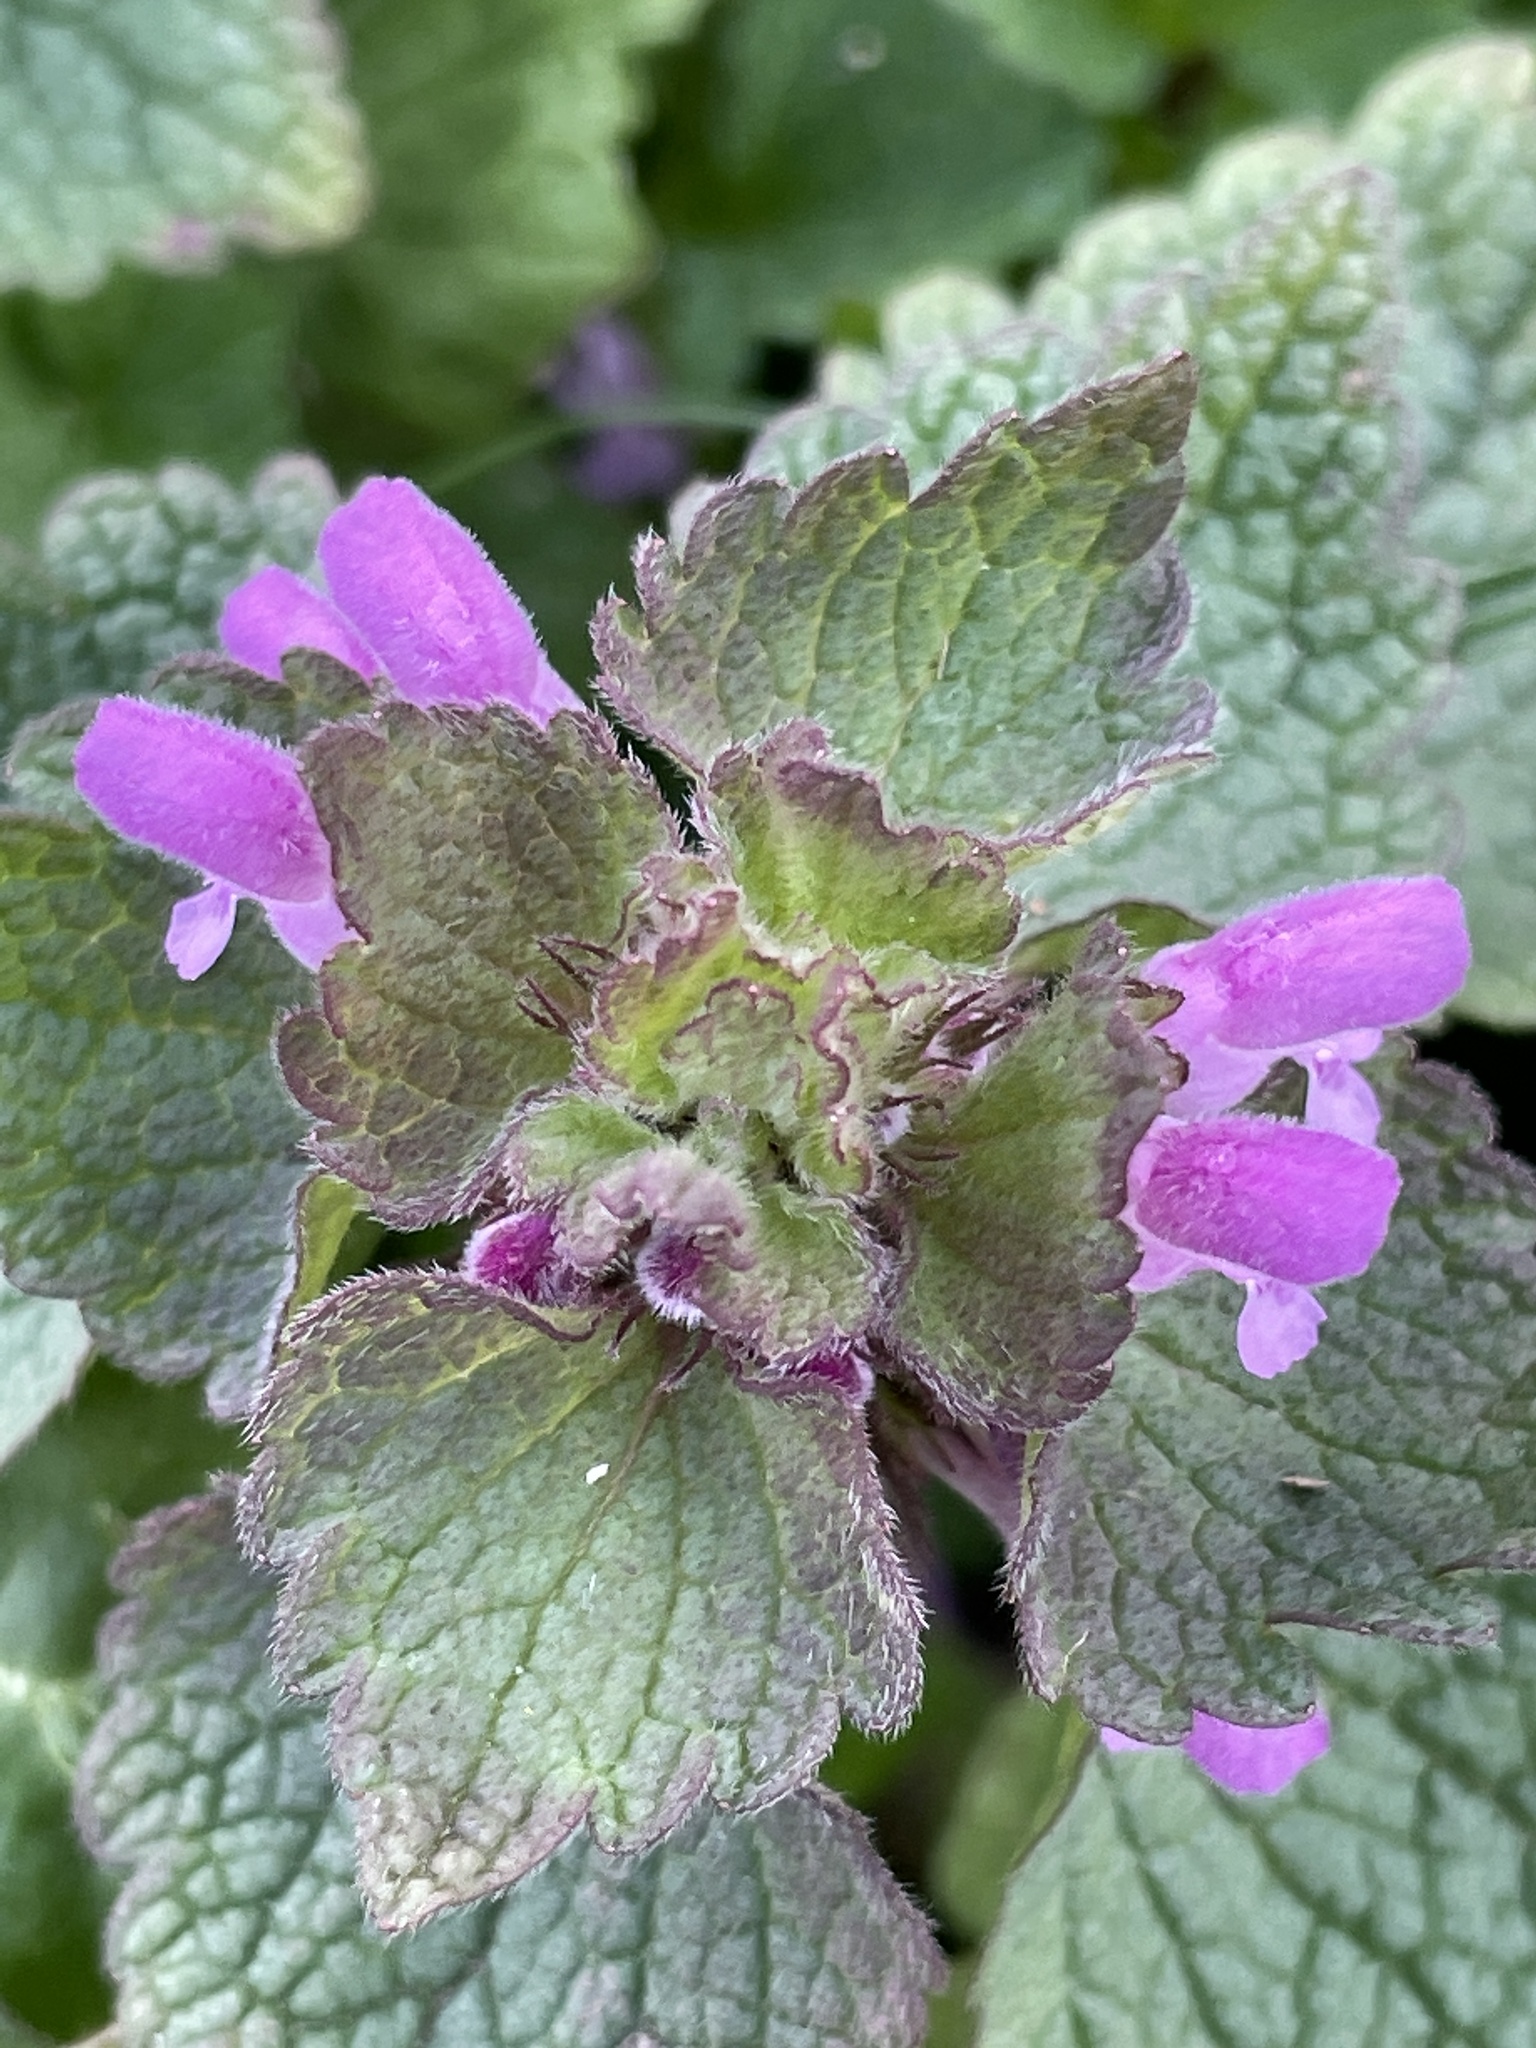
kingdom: Plantae
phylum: Tracheophyta
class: Magnoliopsida
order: Lamiales
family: Lamiaceae
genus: Lamium
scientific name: Lamium purpureum
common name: Red dead-nettle
